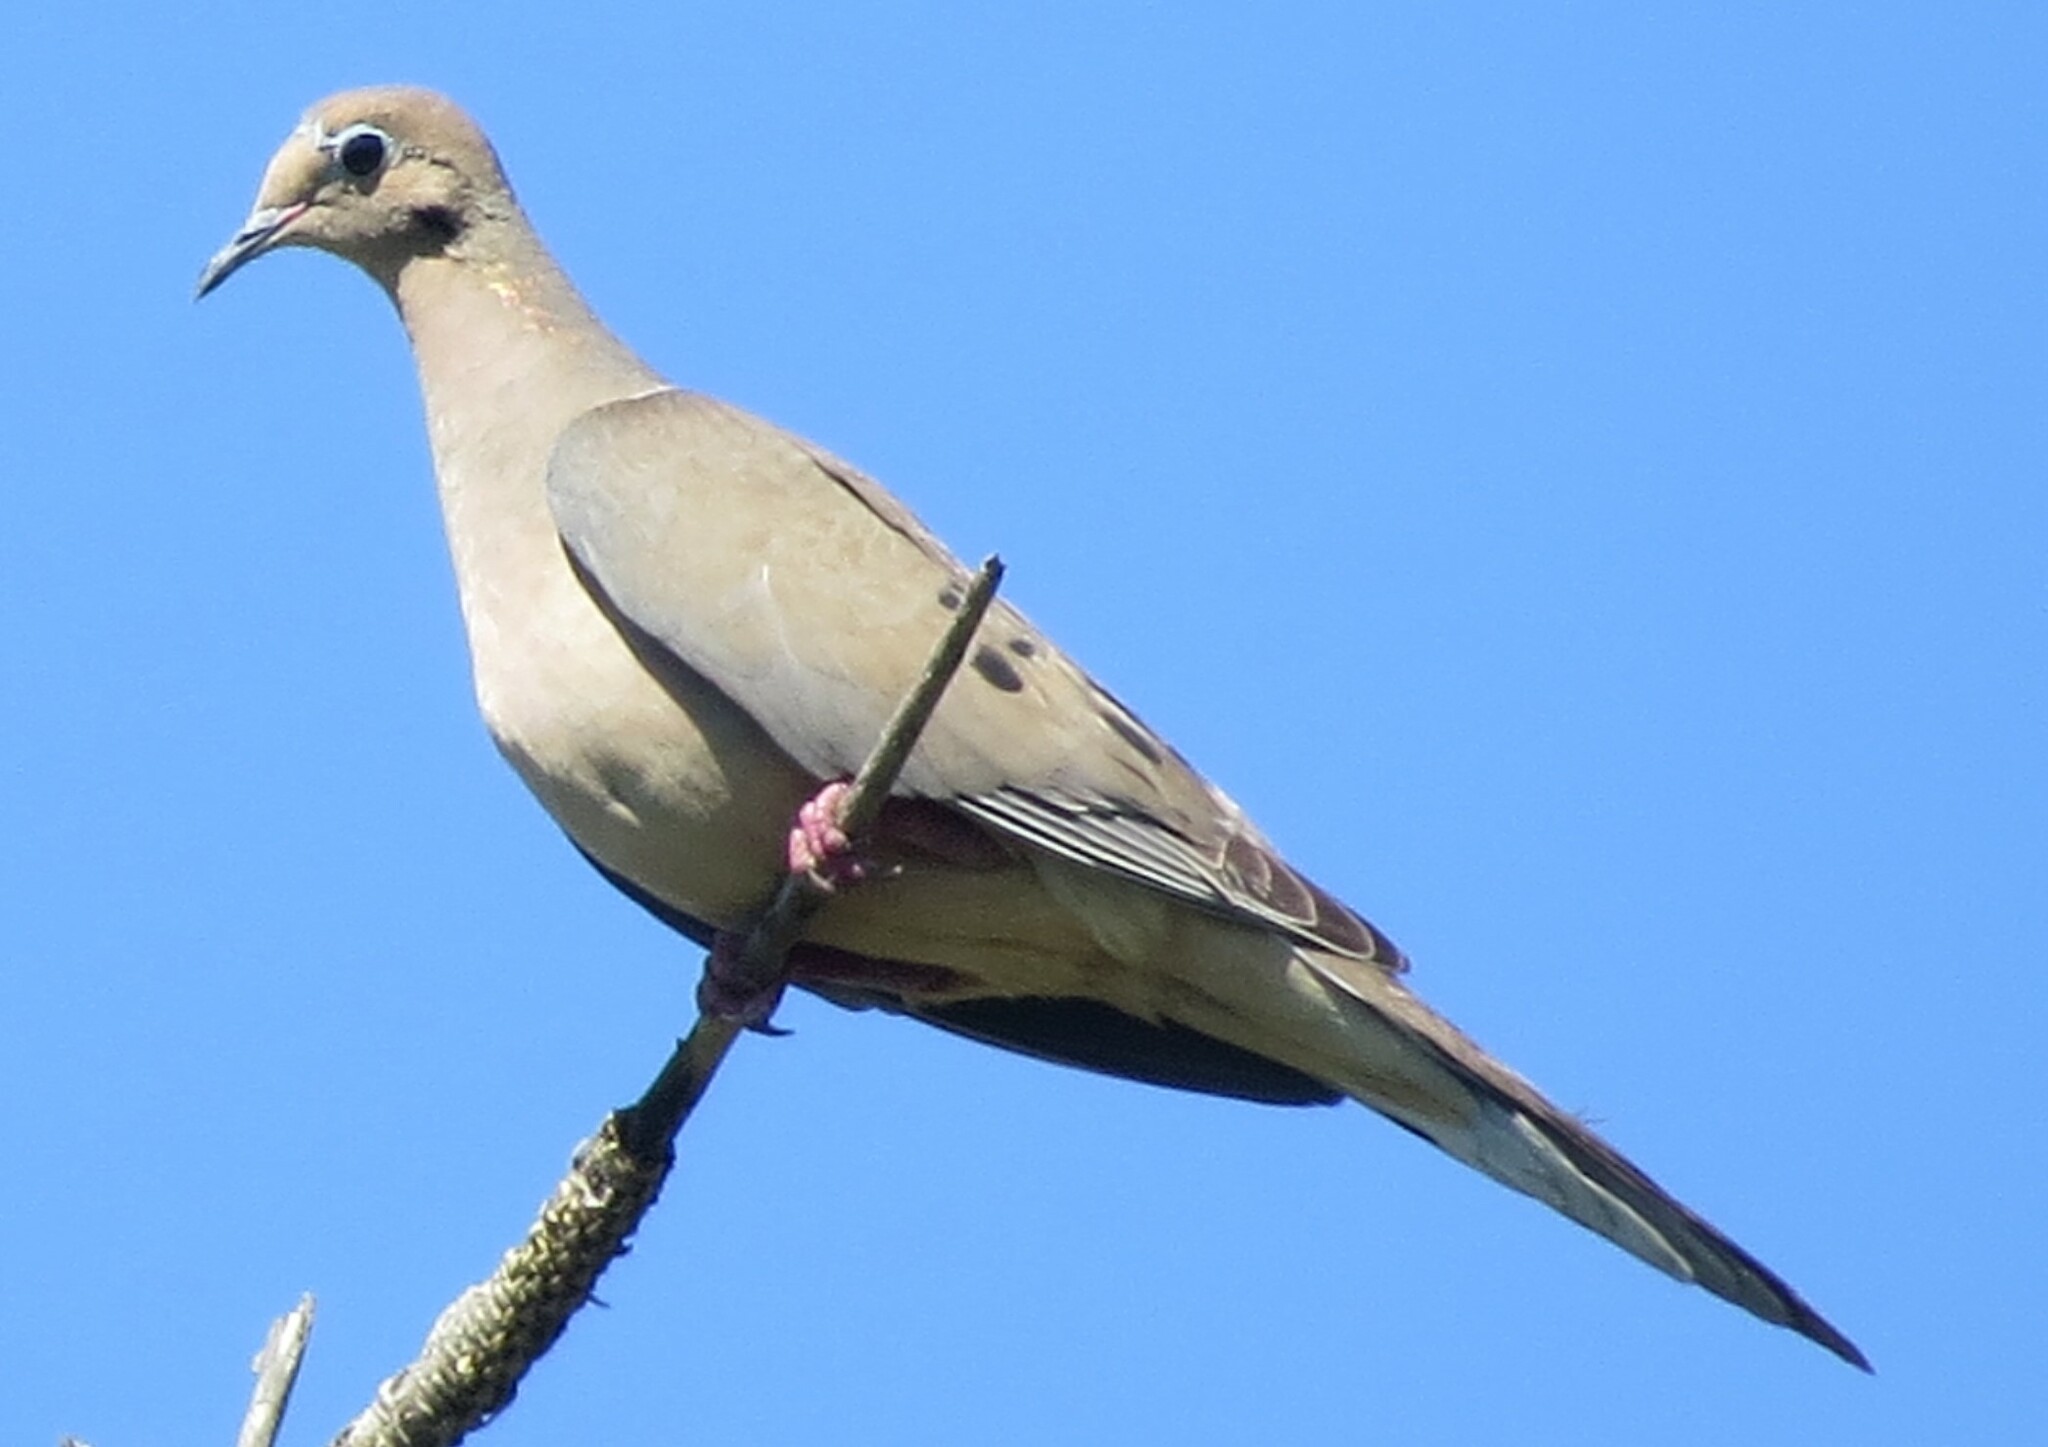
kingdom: Animalia
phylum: Chordata
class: Aves
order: Columbiformes
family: Columbidae
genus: Zenaida
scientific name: Zenaida macroura
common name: Mourning dove
